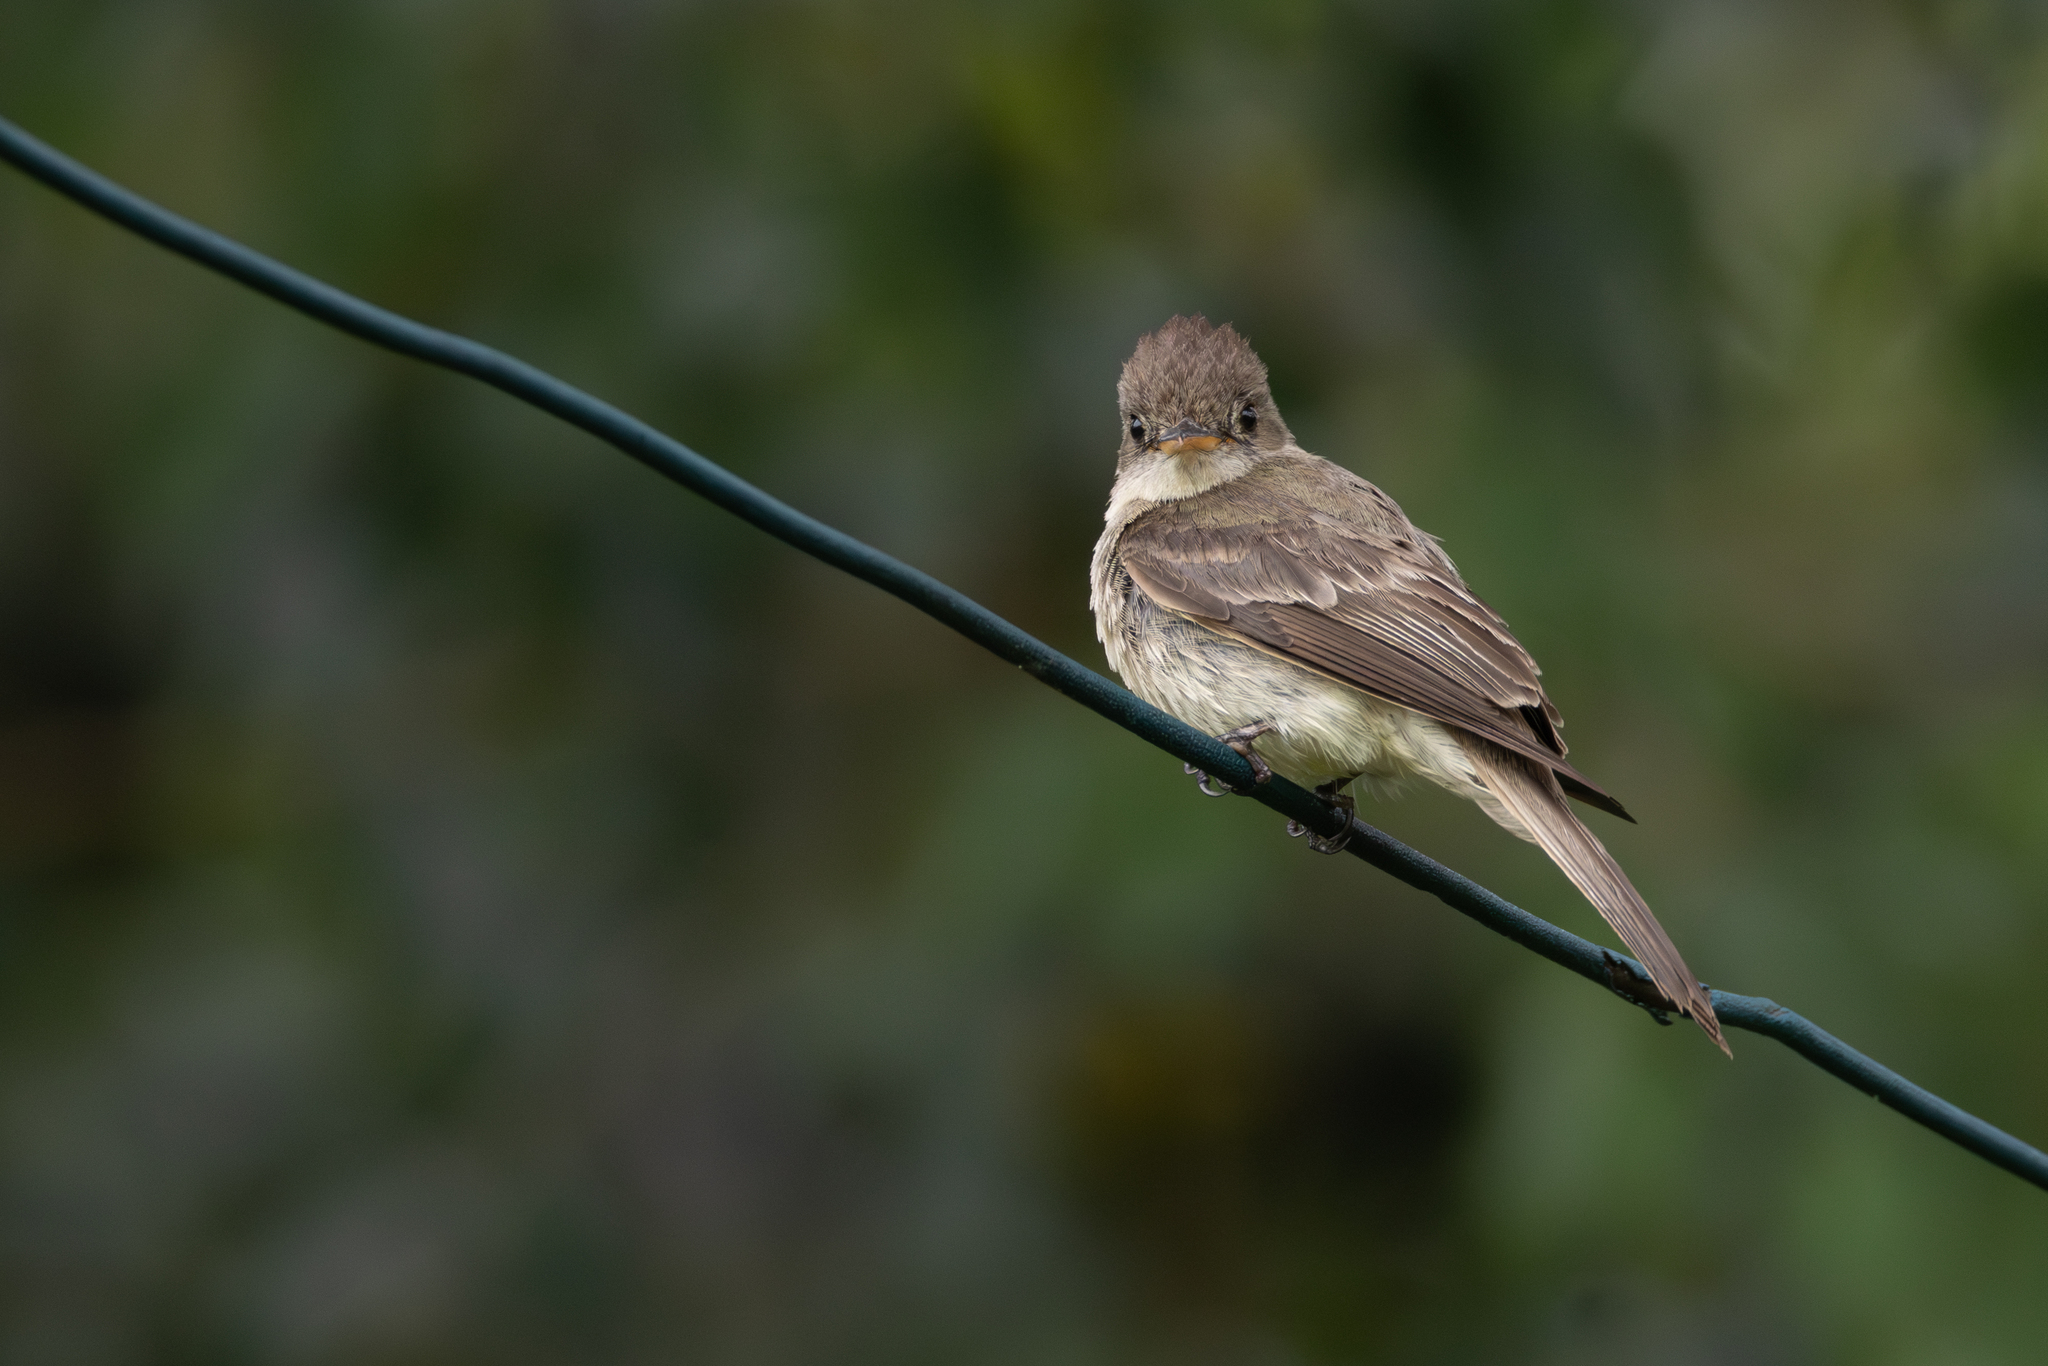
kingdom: Animalia
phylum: Chordata
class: Aves
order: Passeriformes
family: Tyrannidae
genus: Contopus
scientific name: Contopus cinereus
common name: Tropical pewee
